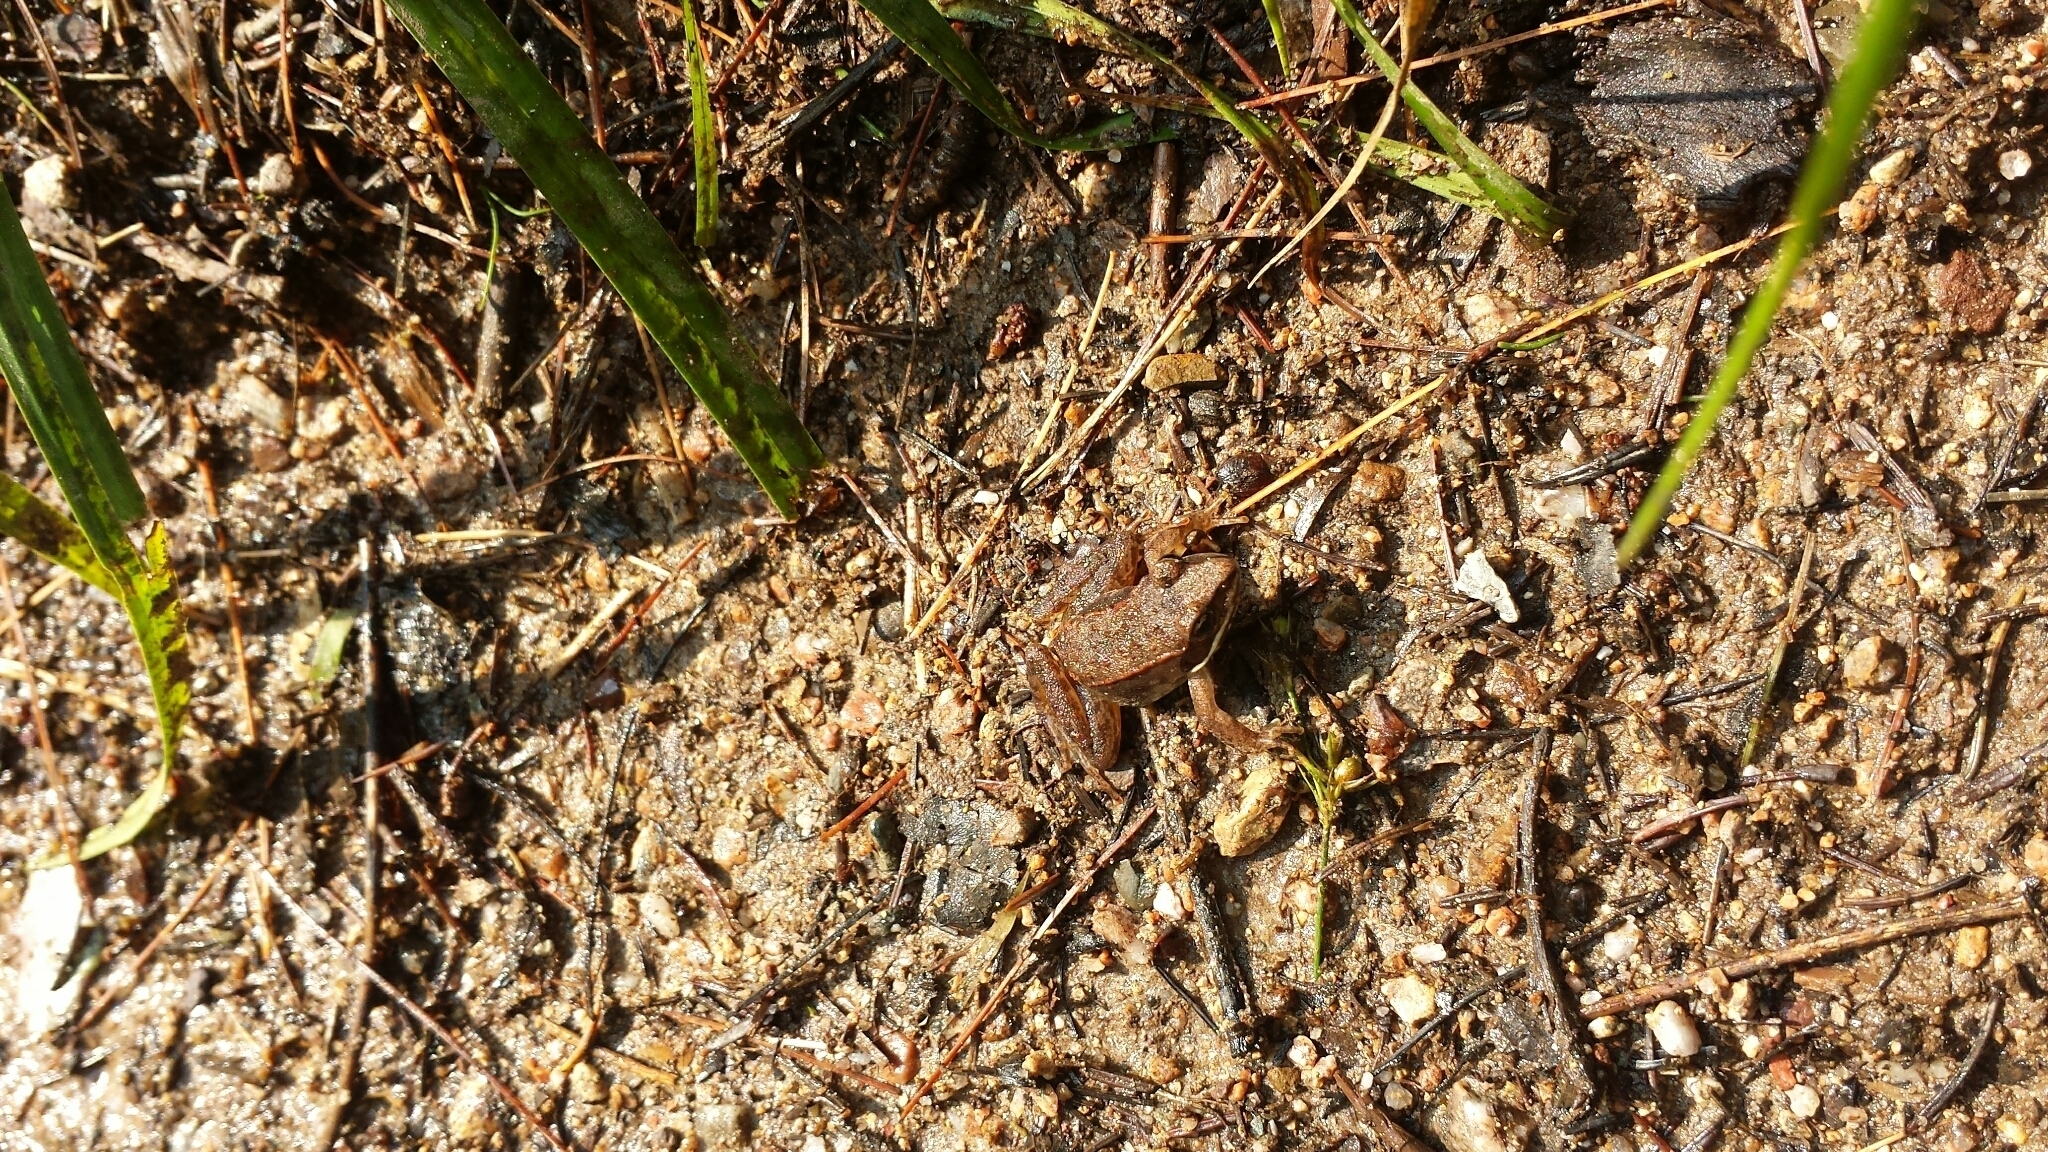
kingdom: Animalia
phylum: Chordata
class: Amphibia
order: Anura
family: Ranidae
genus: Lithobates
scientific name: Lithobates sylvaticus
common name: Wood frog
